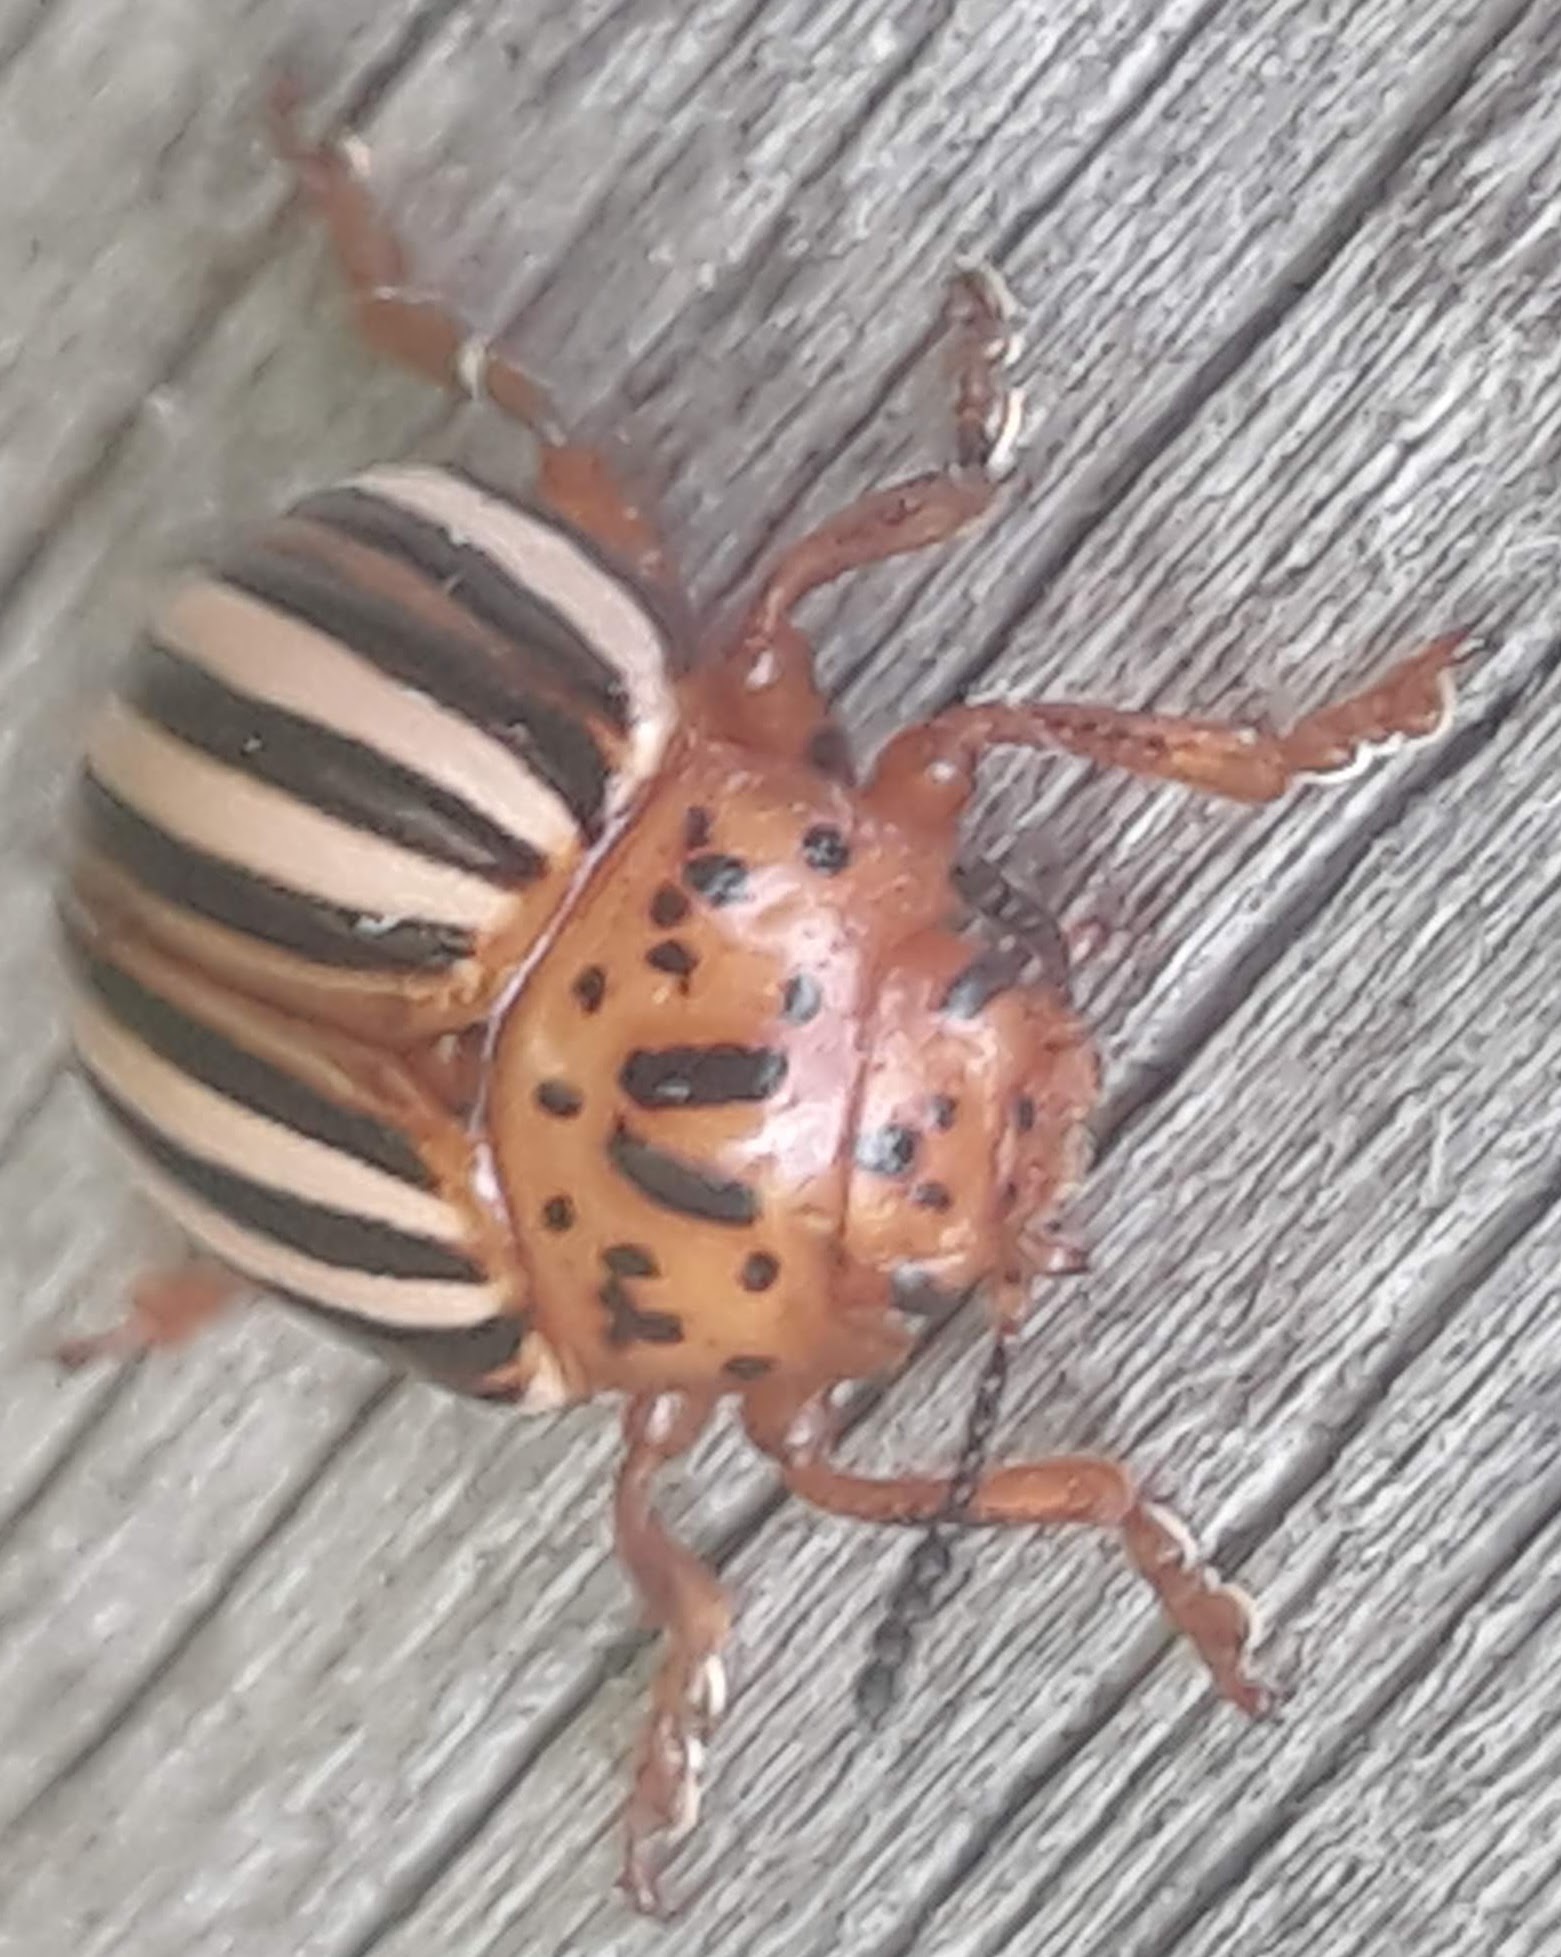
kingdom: Animalia
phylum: Arthropoda
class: Insecta
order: Coleoptera
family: Chrysomelidae
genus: Leptinotarsa
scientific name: Leptinotarsa juncta
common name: False potato beetle
